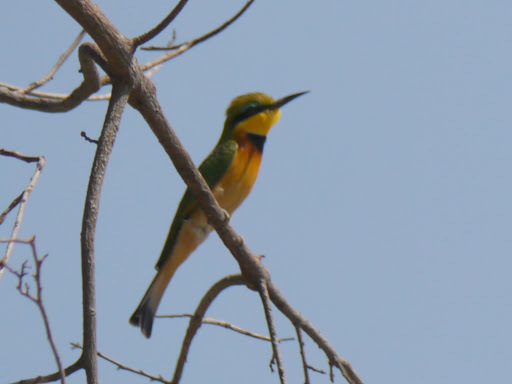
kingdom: Animalia
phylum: Chordata
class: Aves
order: Coraciiformes
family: Meropidae
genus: Merops
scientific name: Merops pusillus
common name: Little bee-eater
